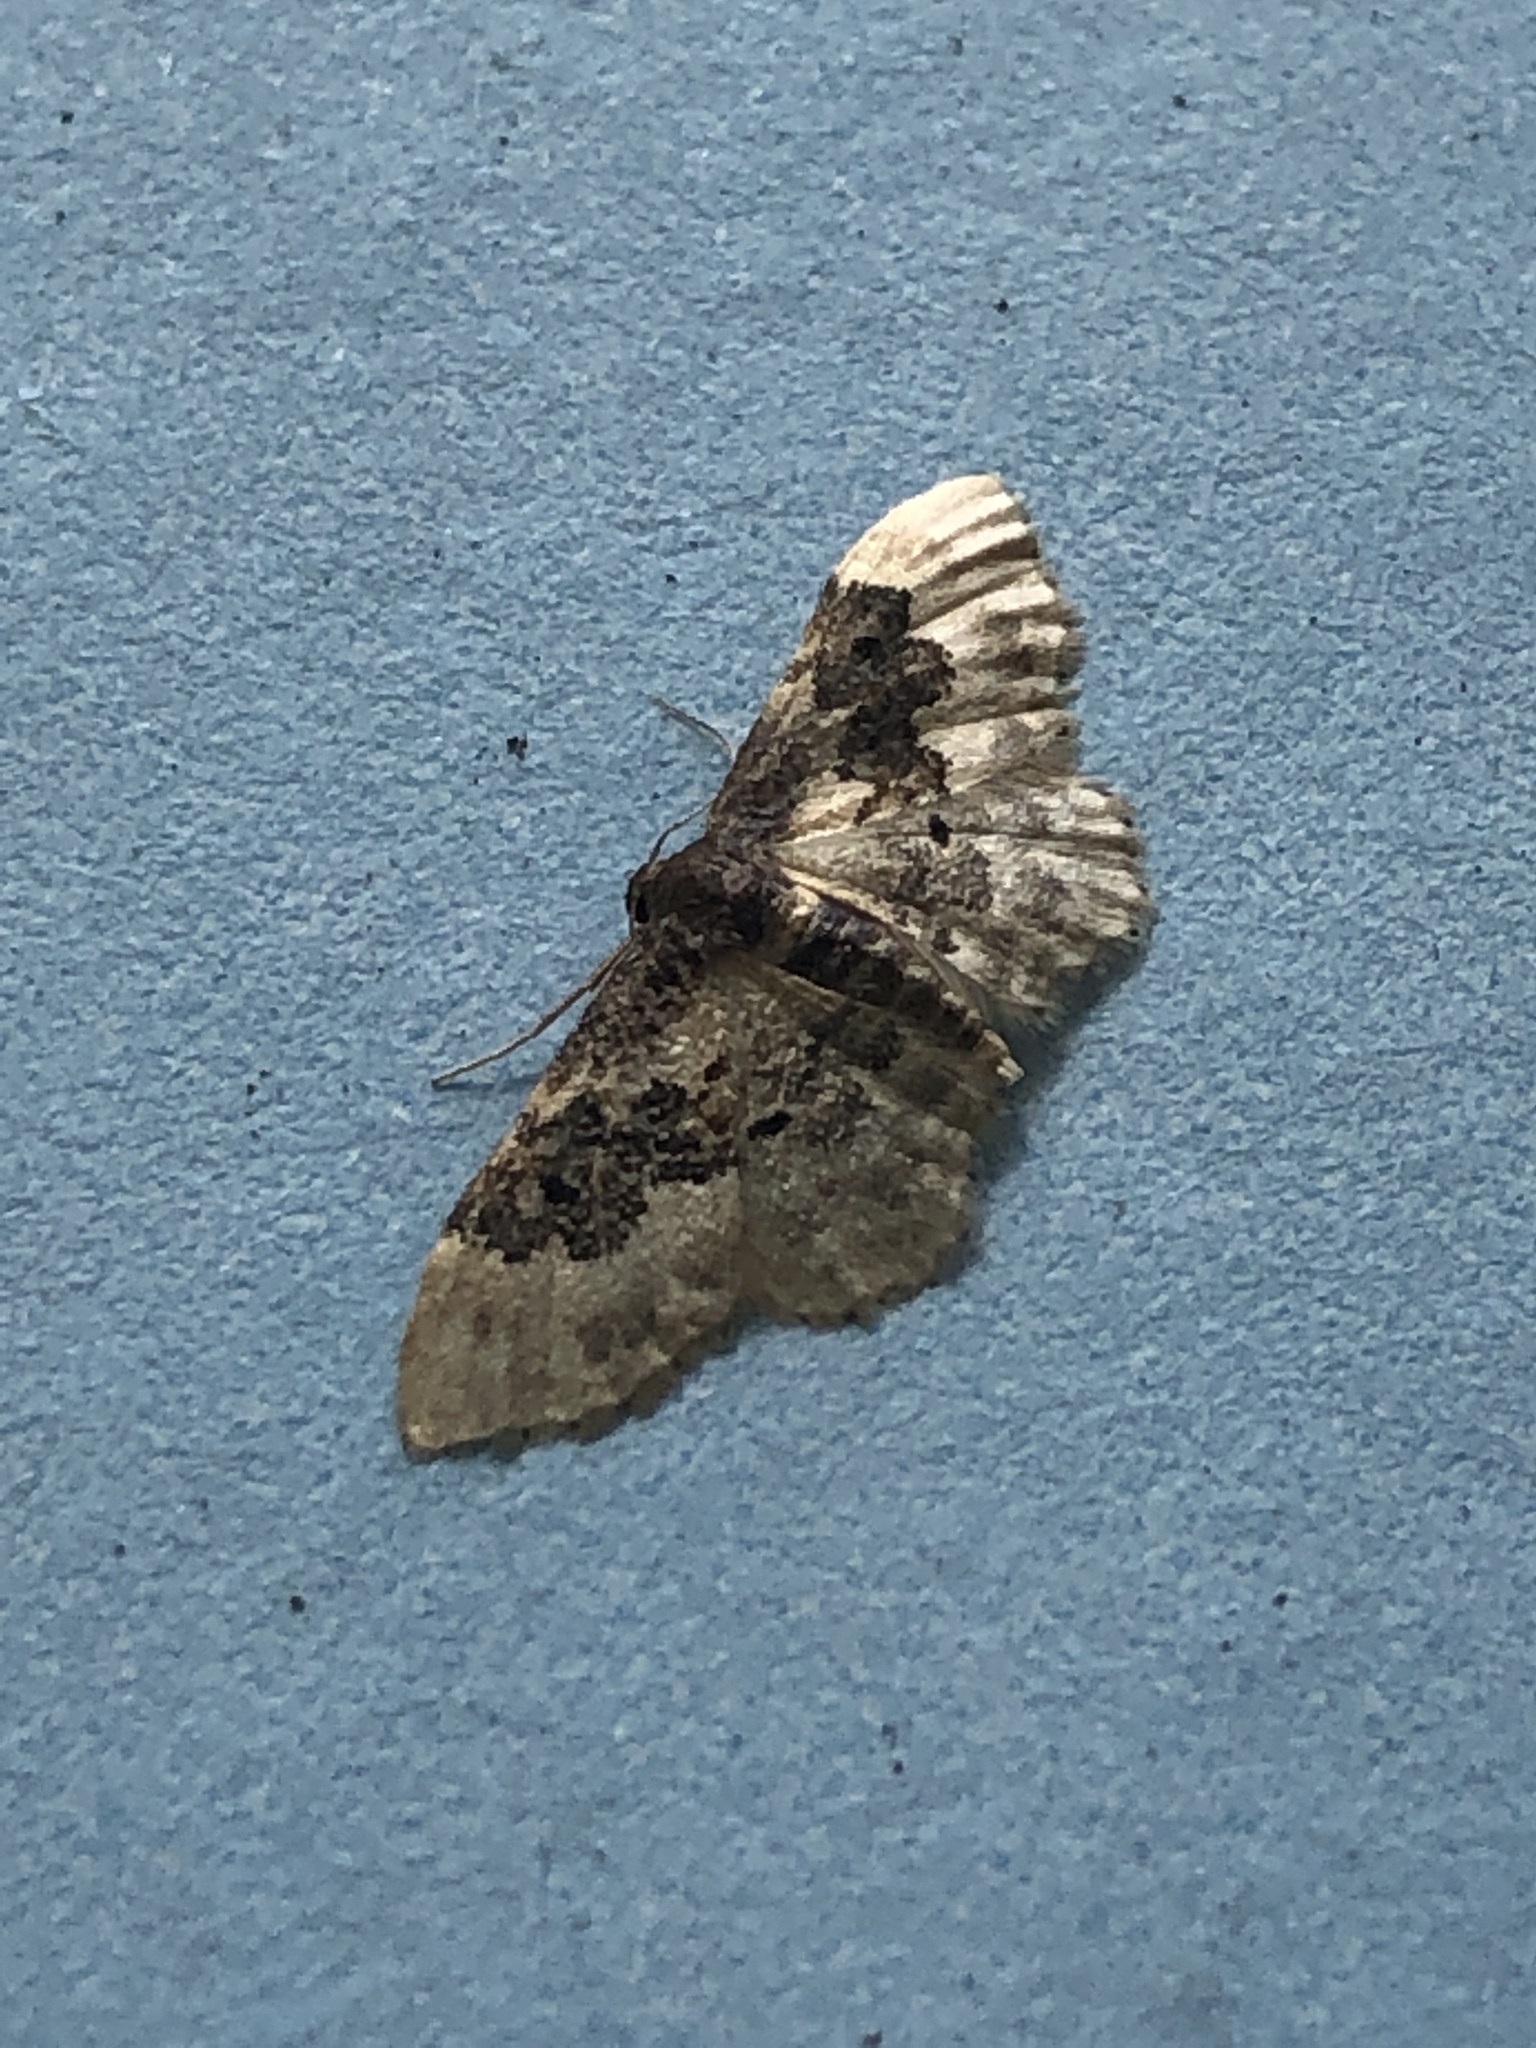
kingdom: Animalia
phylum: Arthropoda
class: Insecta
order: Lepidoptera
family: Geometridae
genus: Idaea
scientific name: Idaea rusticata
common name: Least carpet
